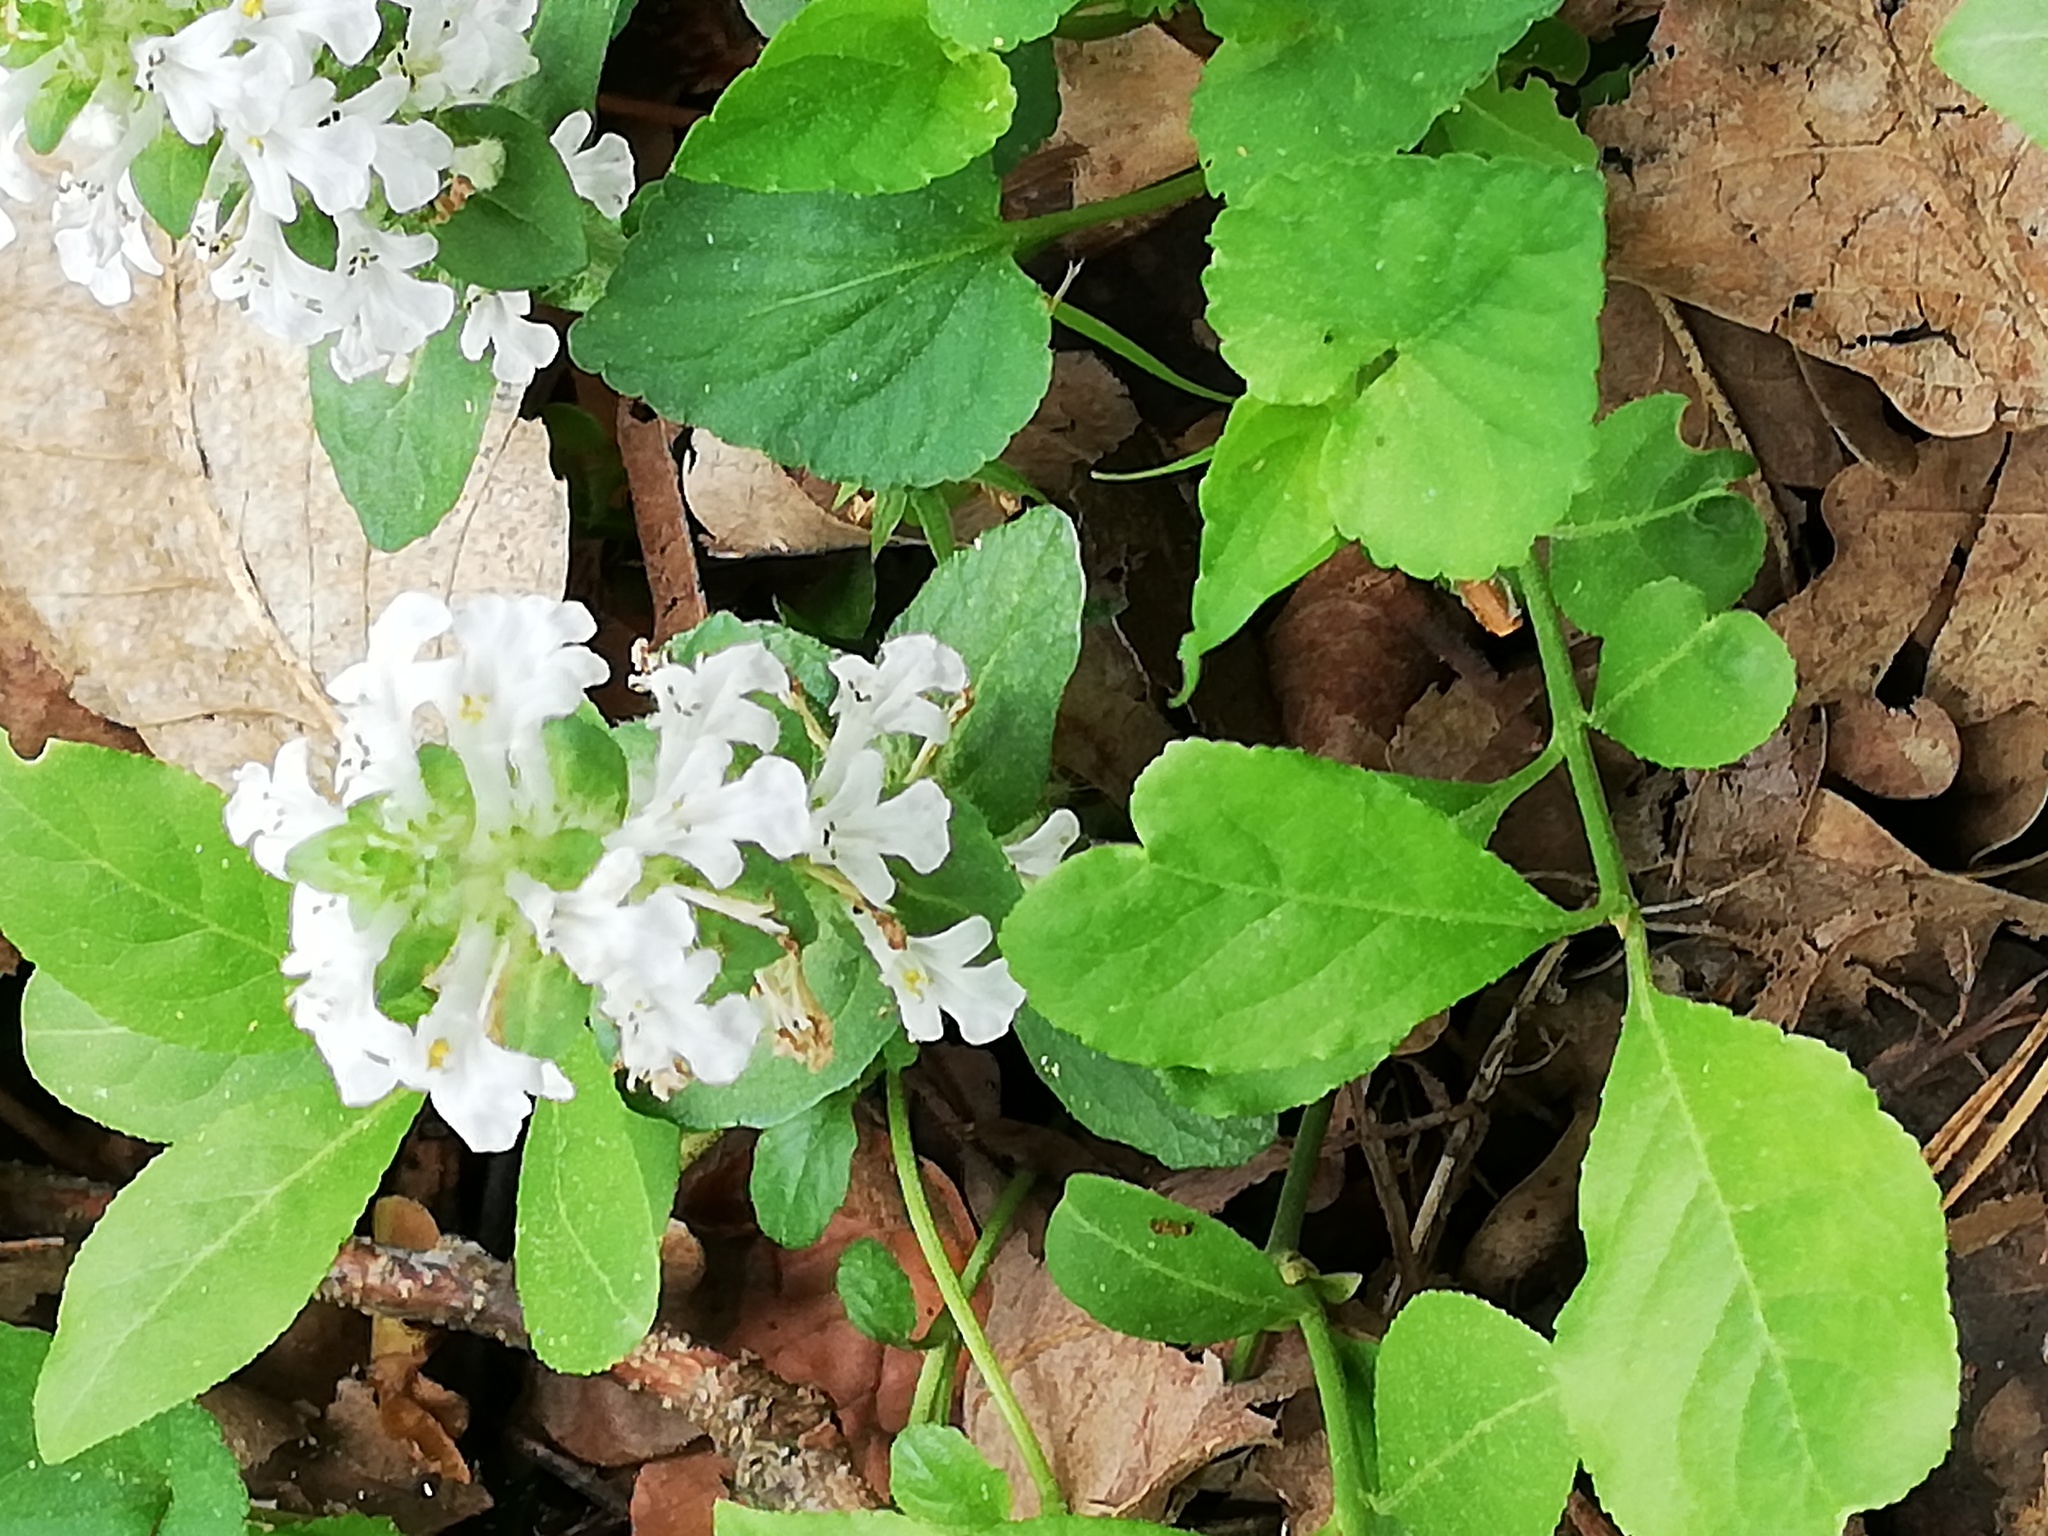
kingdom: Plantae
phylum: Tracheophyta
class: Magnoliopsida
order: Lamiales
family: Lamiaceae
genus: Ajuga
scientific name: Ajuga reptans
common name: Bugle
